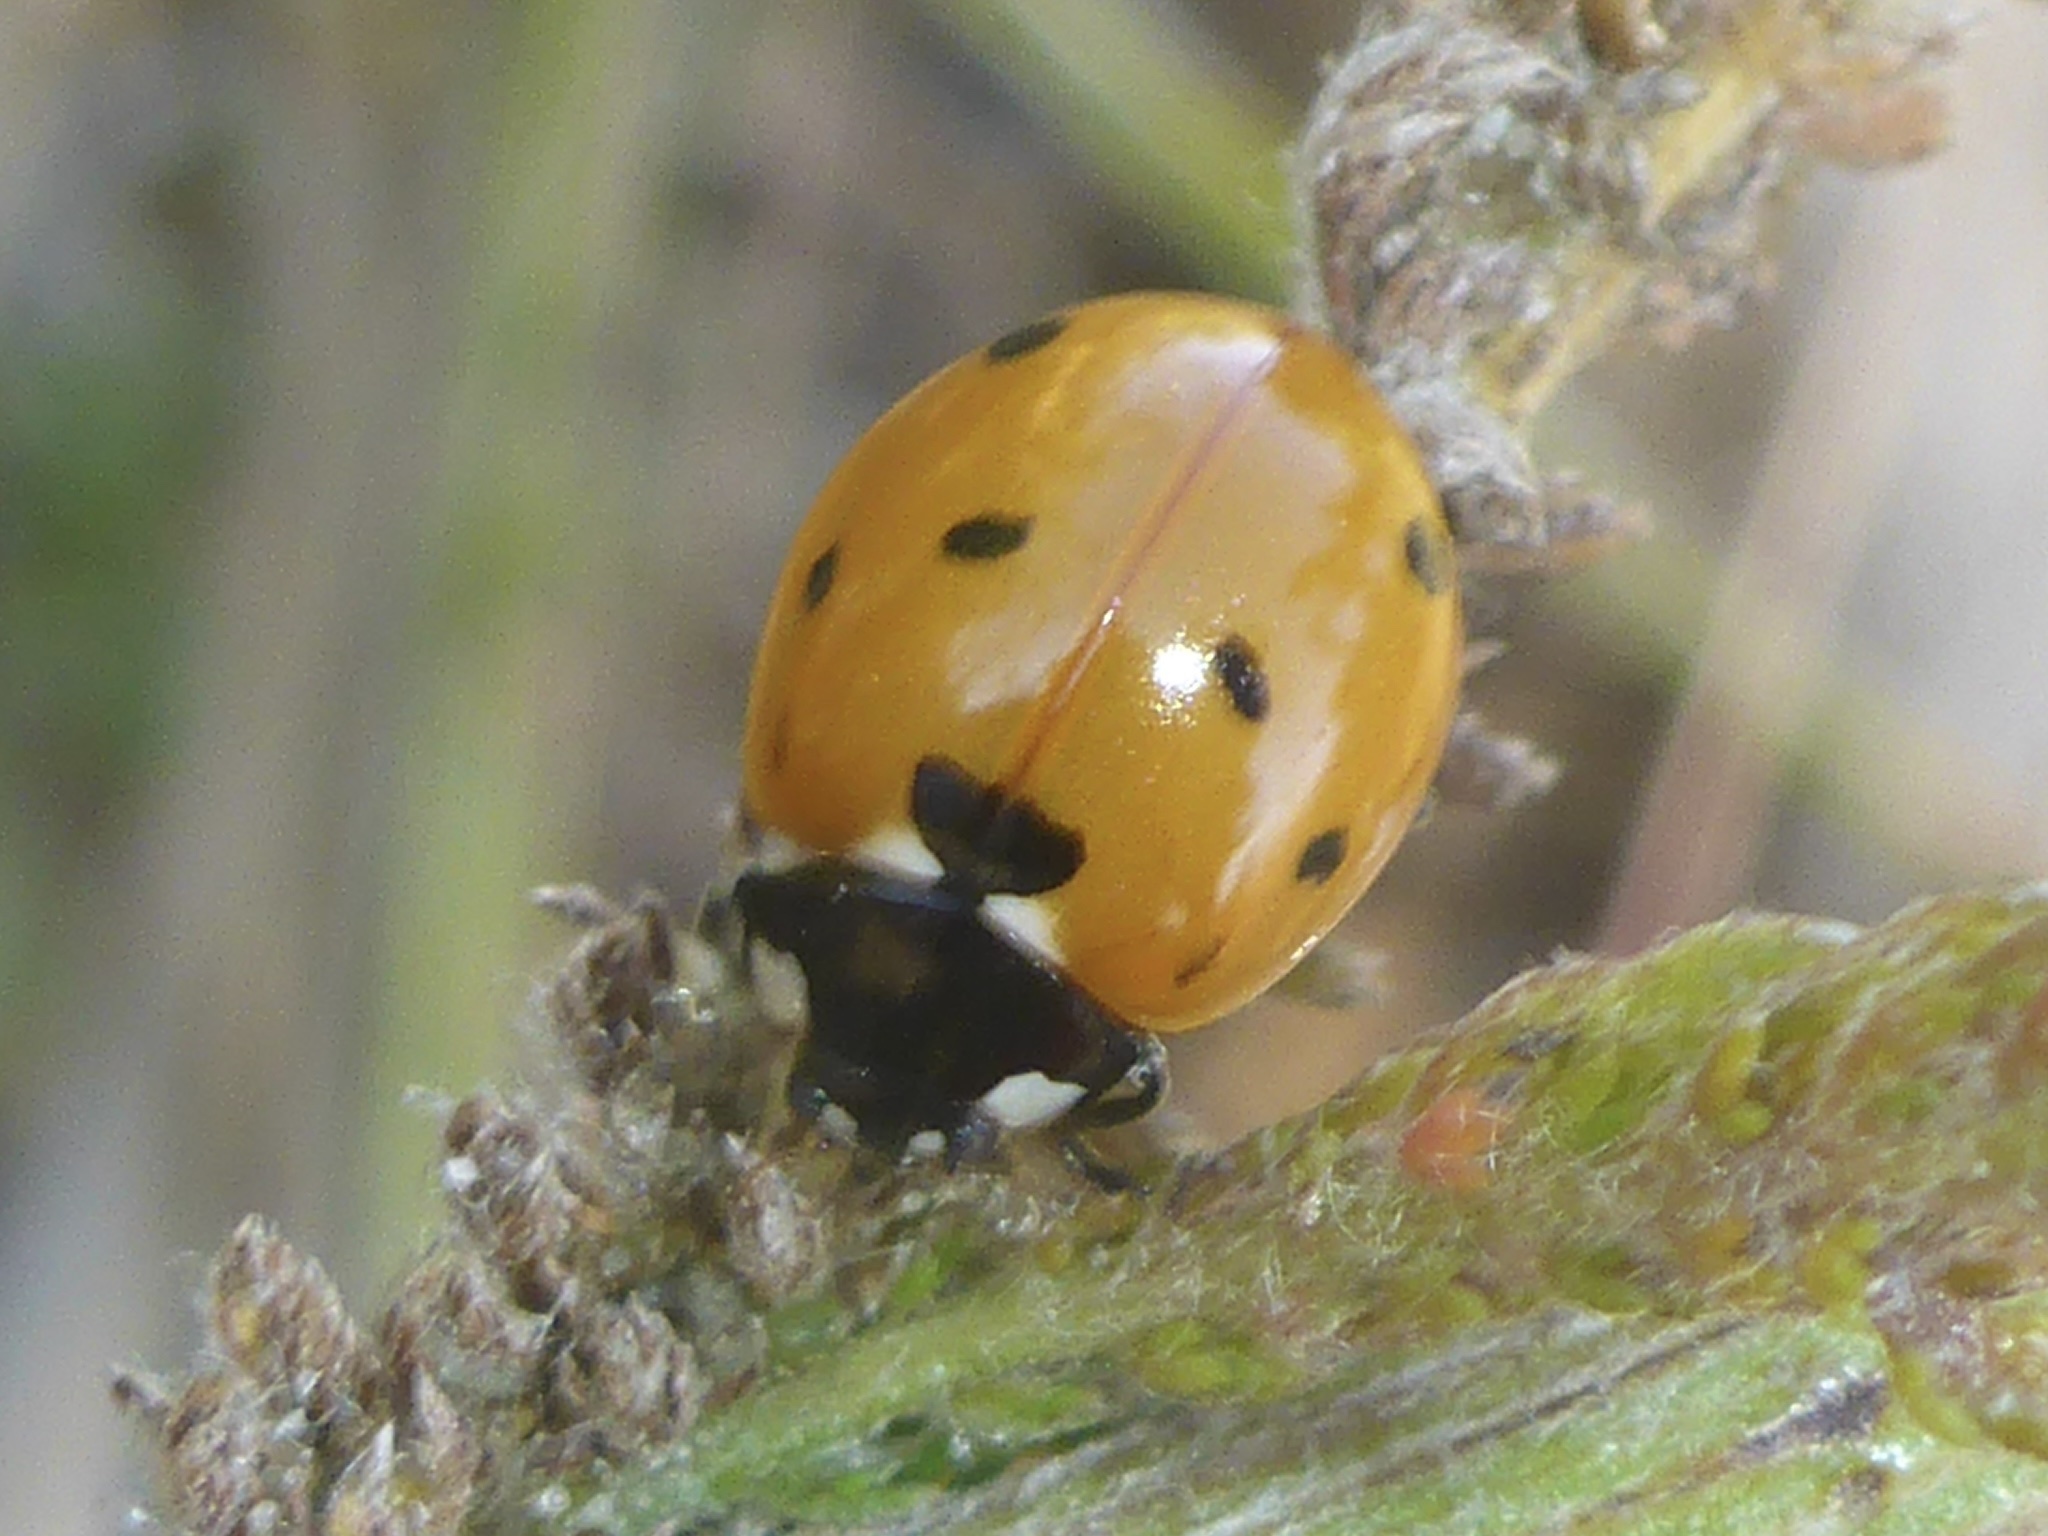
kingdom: Animalia
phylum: Arthropoda
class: Insecta
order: Coleoptera
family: Coccinellidae
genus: Coccinella
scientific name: Coccinella septempunctata
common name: Sevenspotted lady beetle
